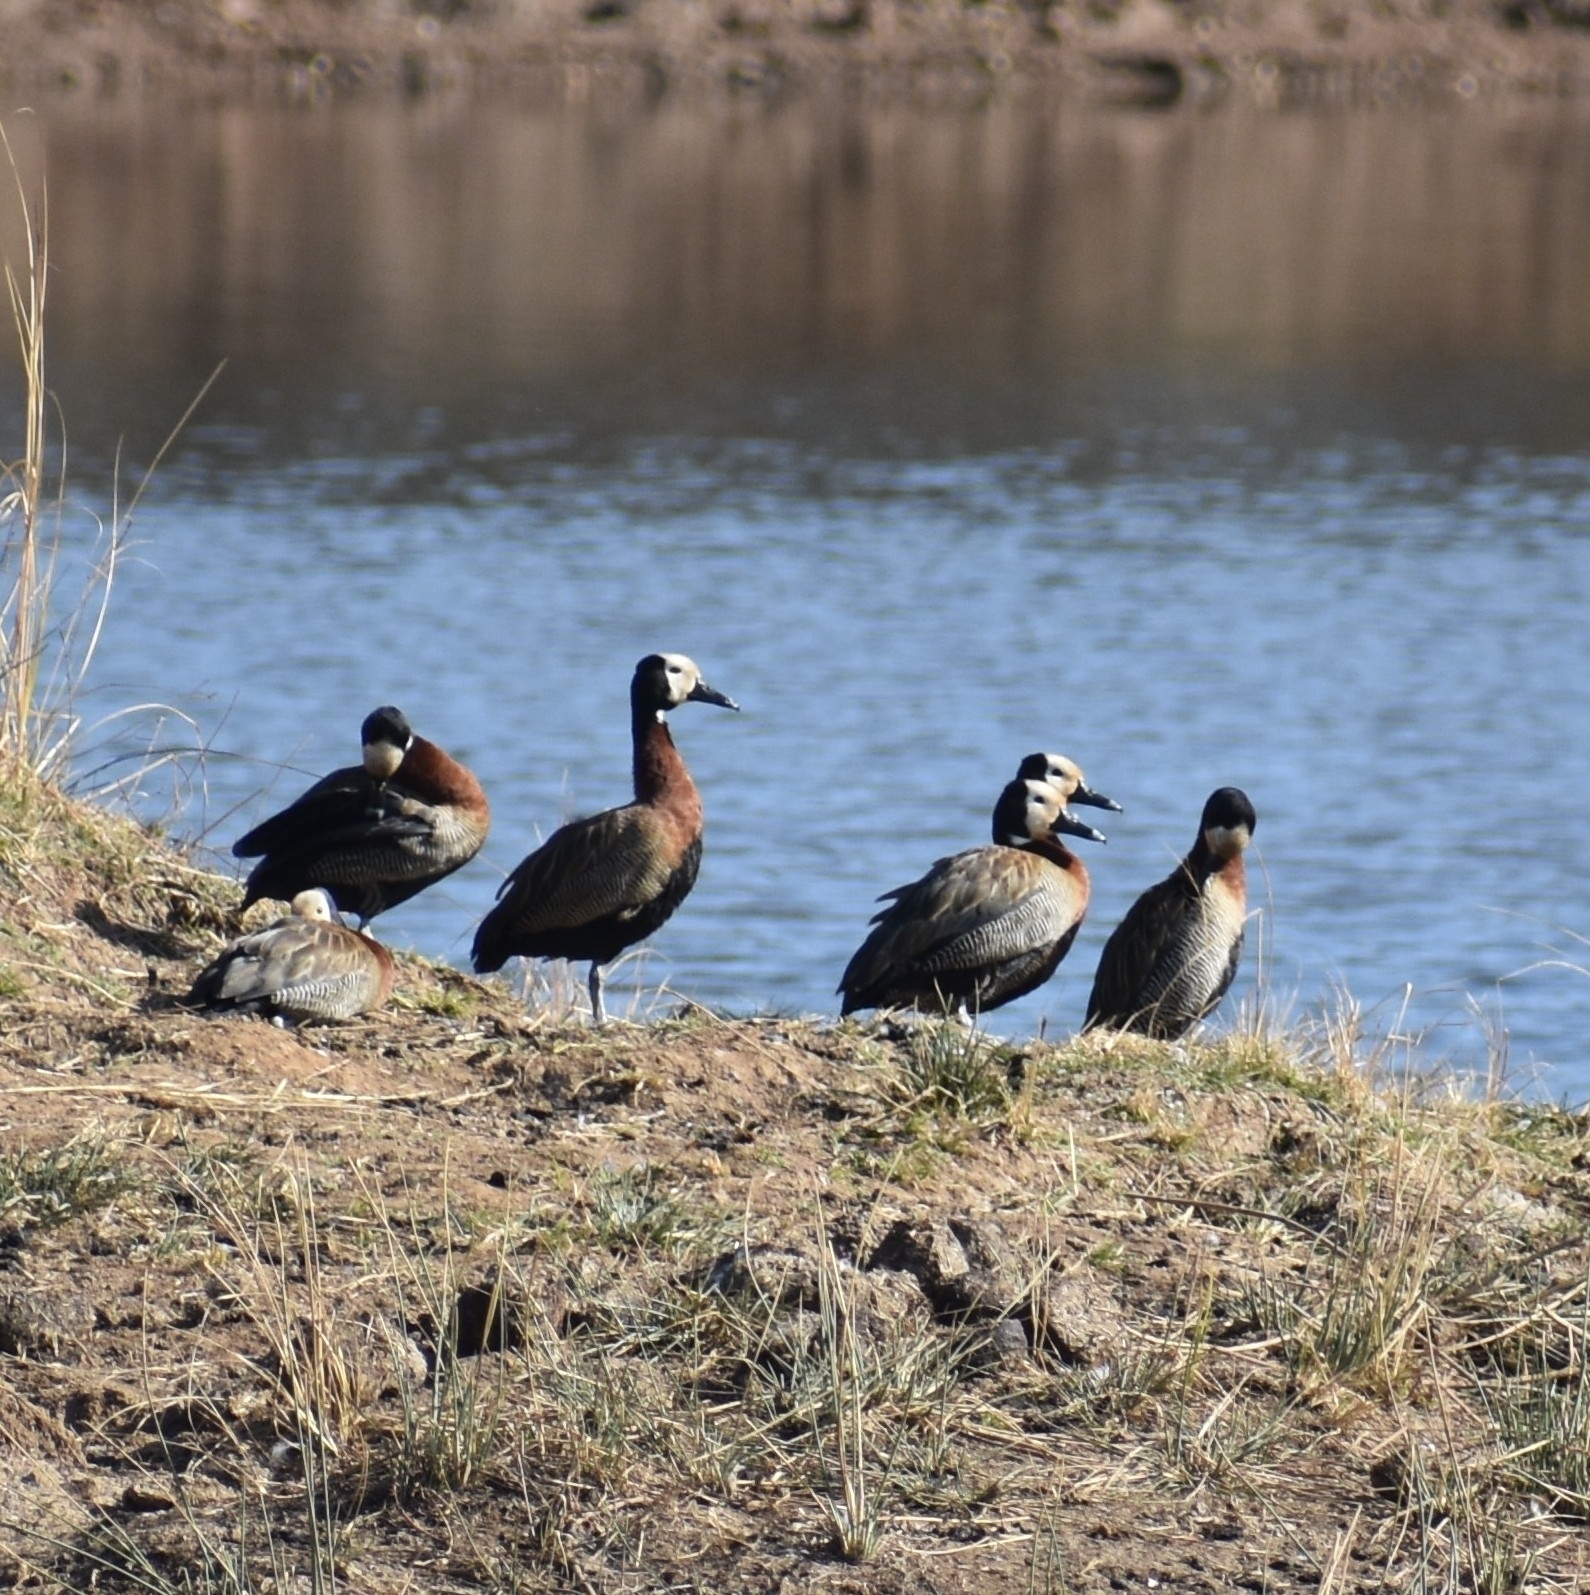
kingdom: Animalia
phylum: Chordata
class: Aves
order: Anseriformes
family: Anatidae
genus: Dendrocygna
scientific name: Dendrocygna viduata
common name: White-faced whistling duck
